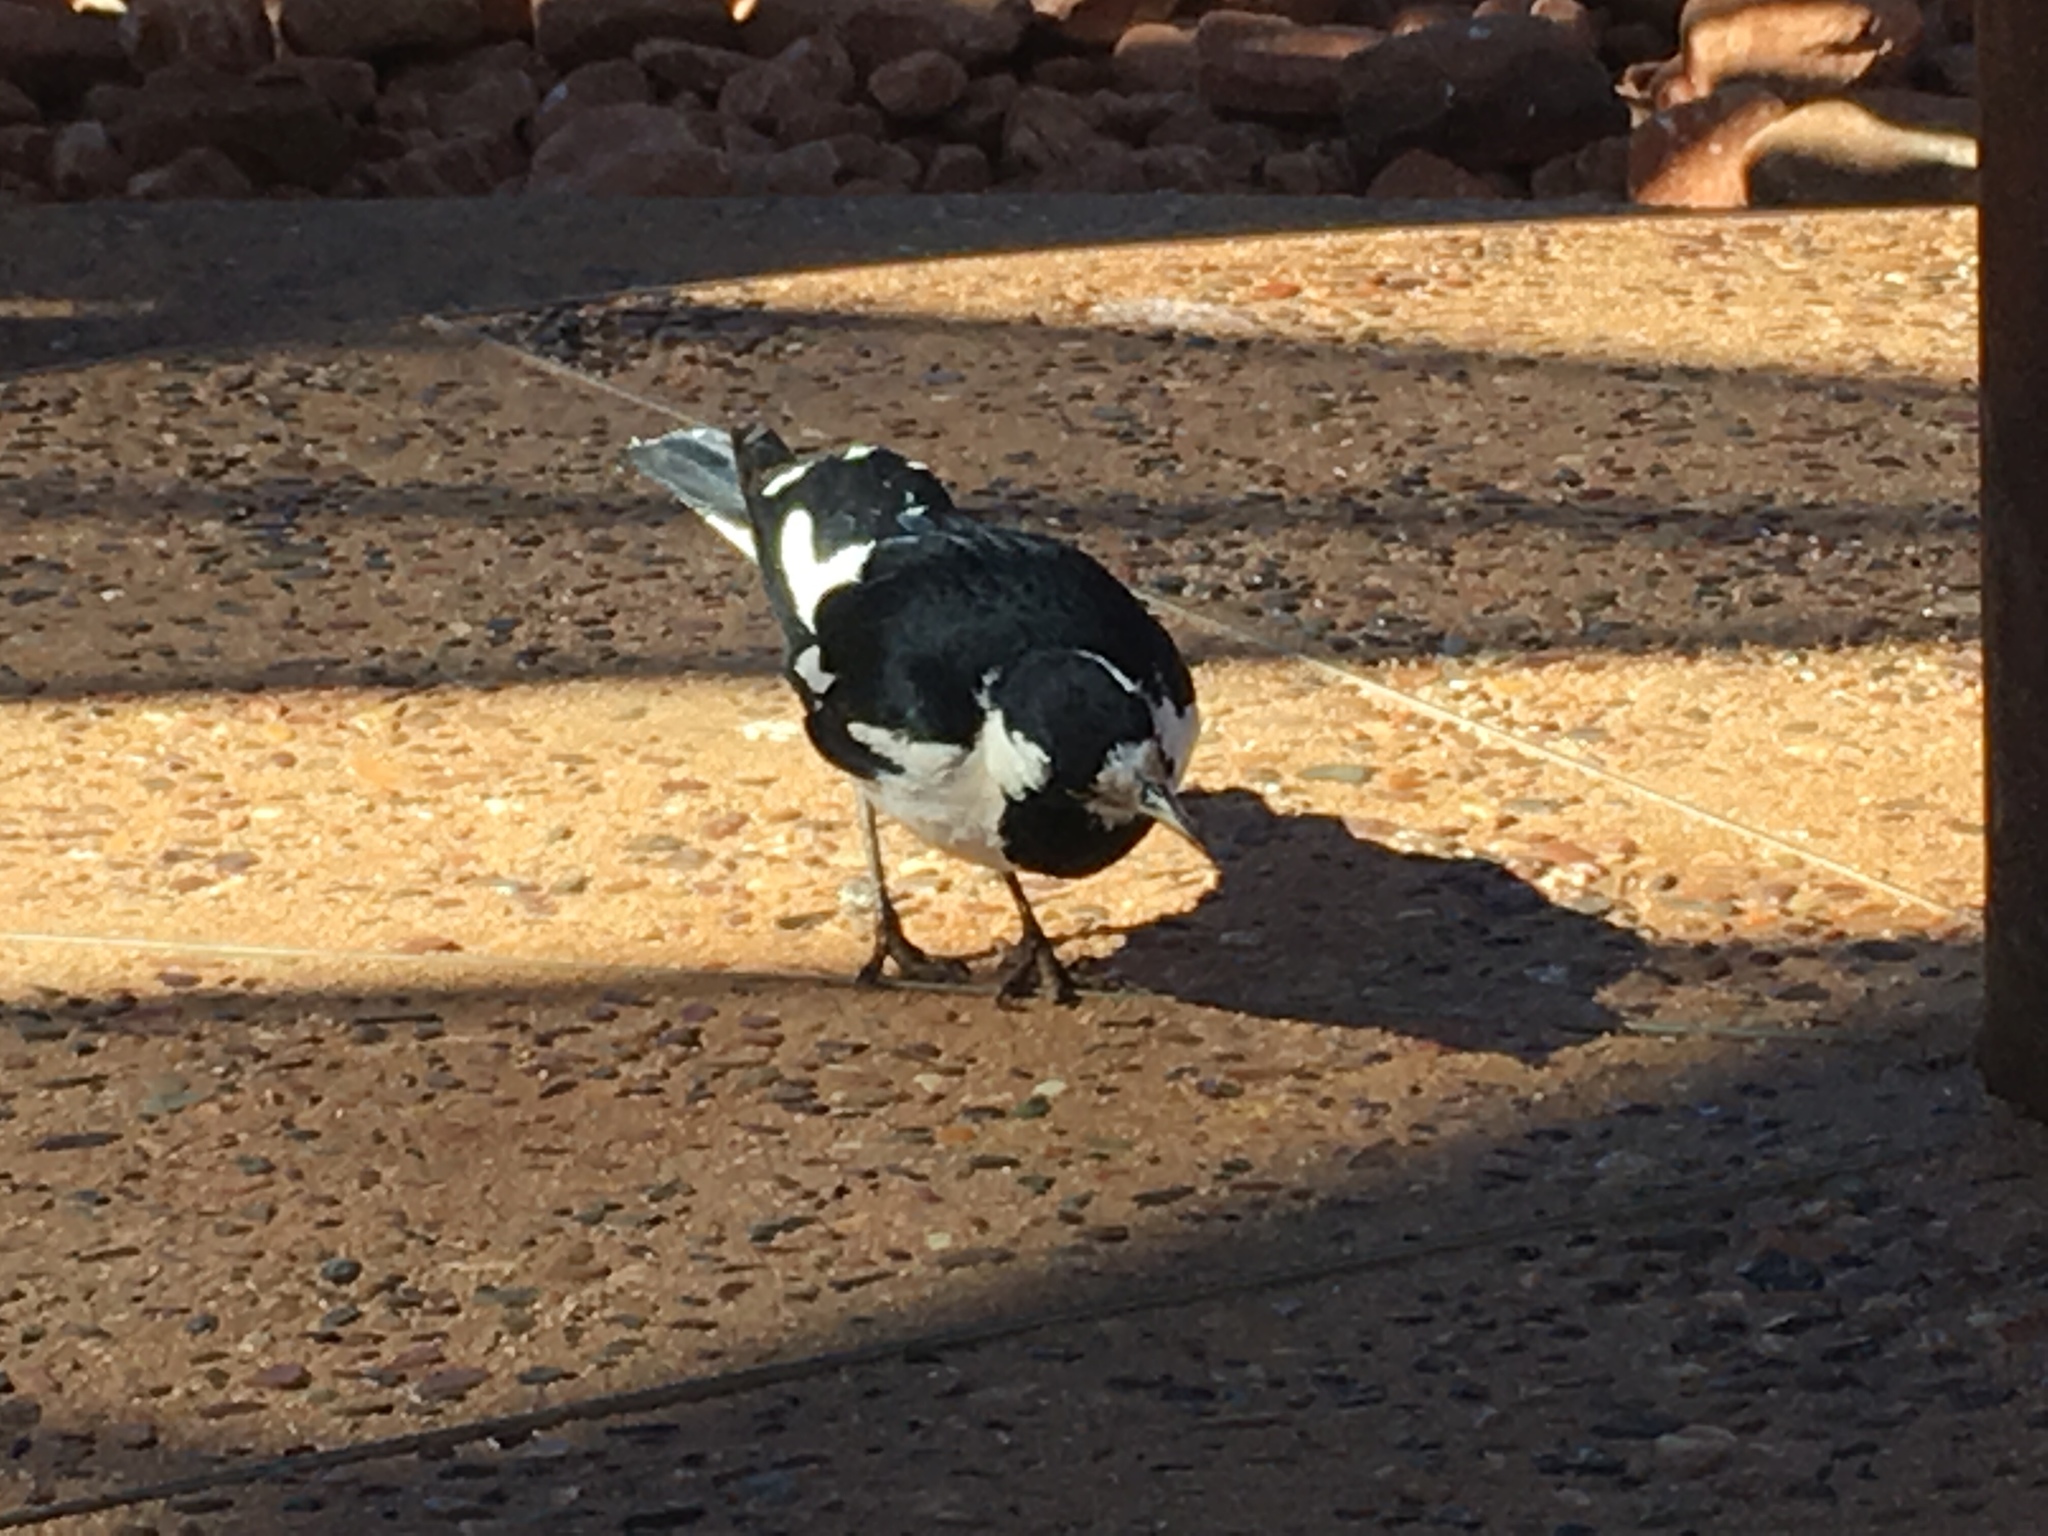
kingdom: Animalia
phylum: Chordata
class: Aves
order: Passeriformes
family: Monarchidae
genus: Grallina
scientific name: Grallina cyanoleuca
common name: Magpie-lark
